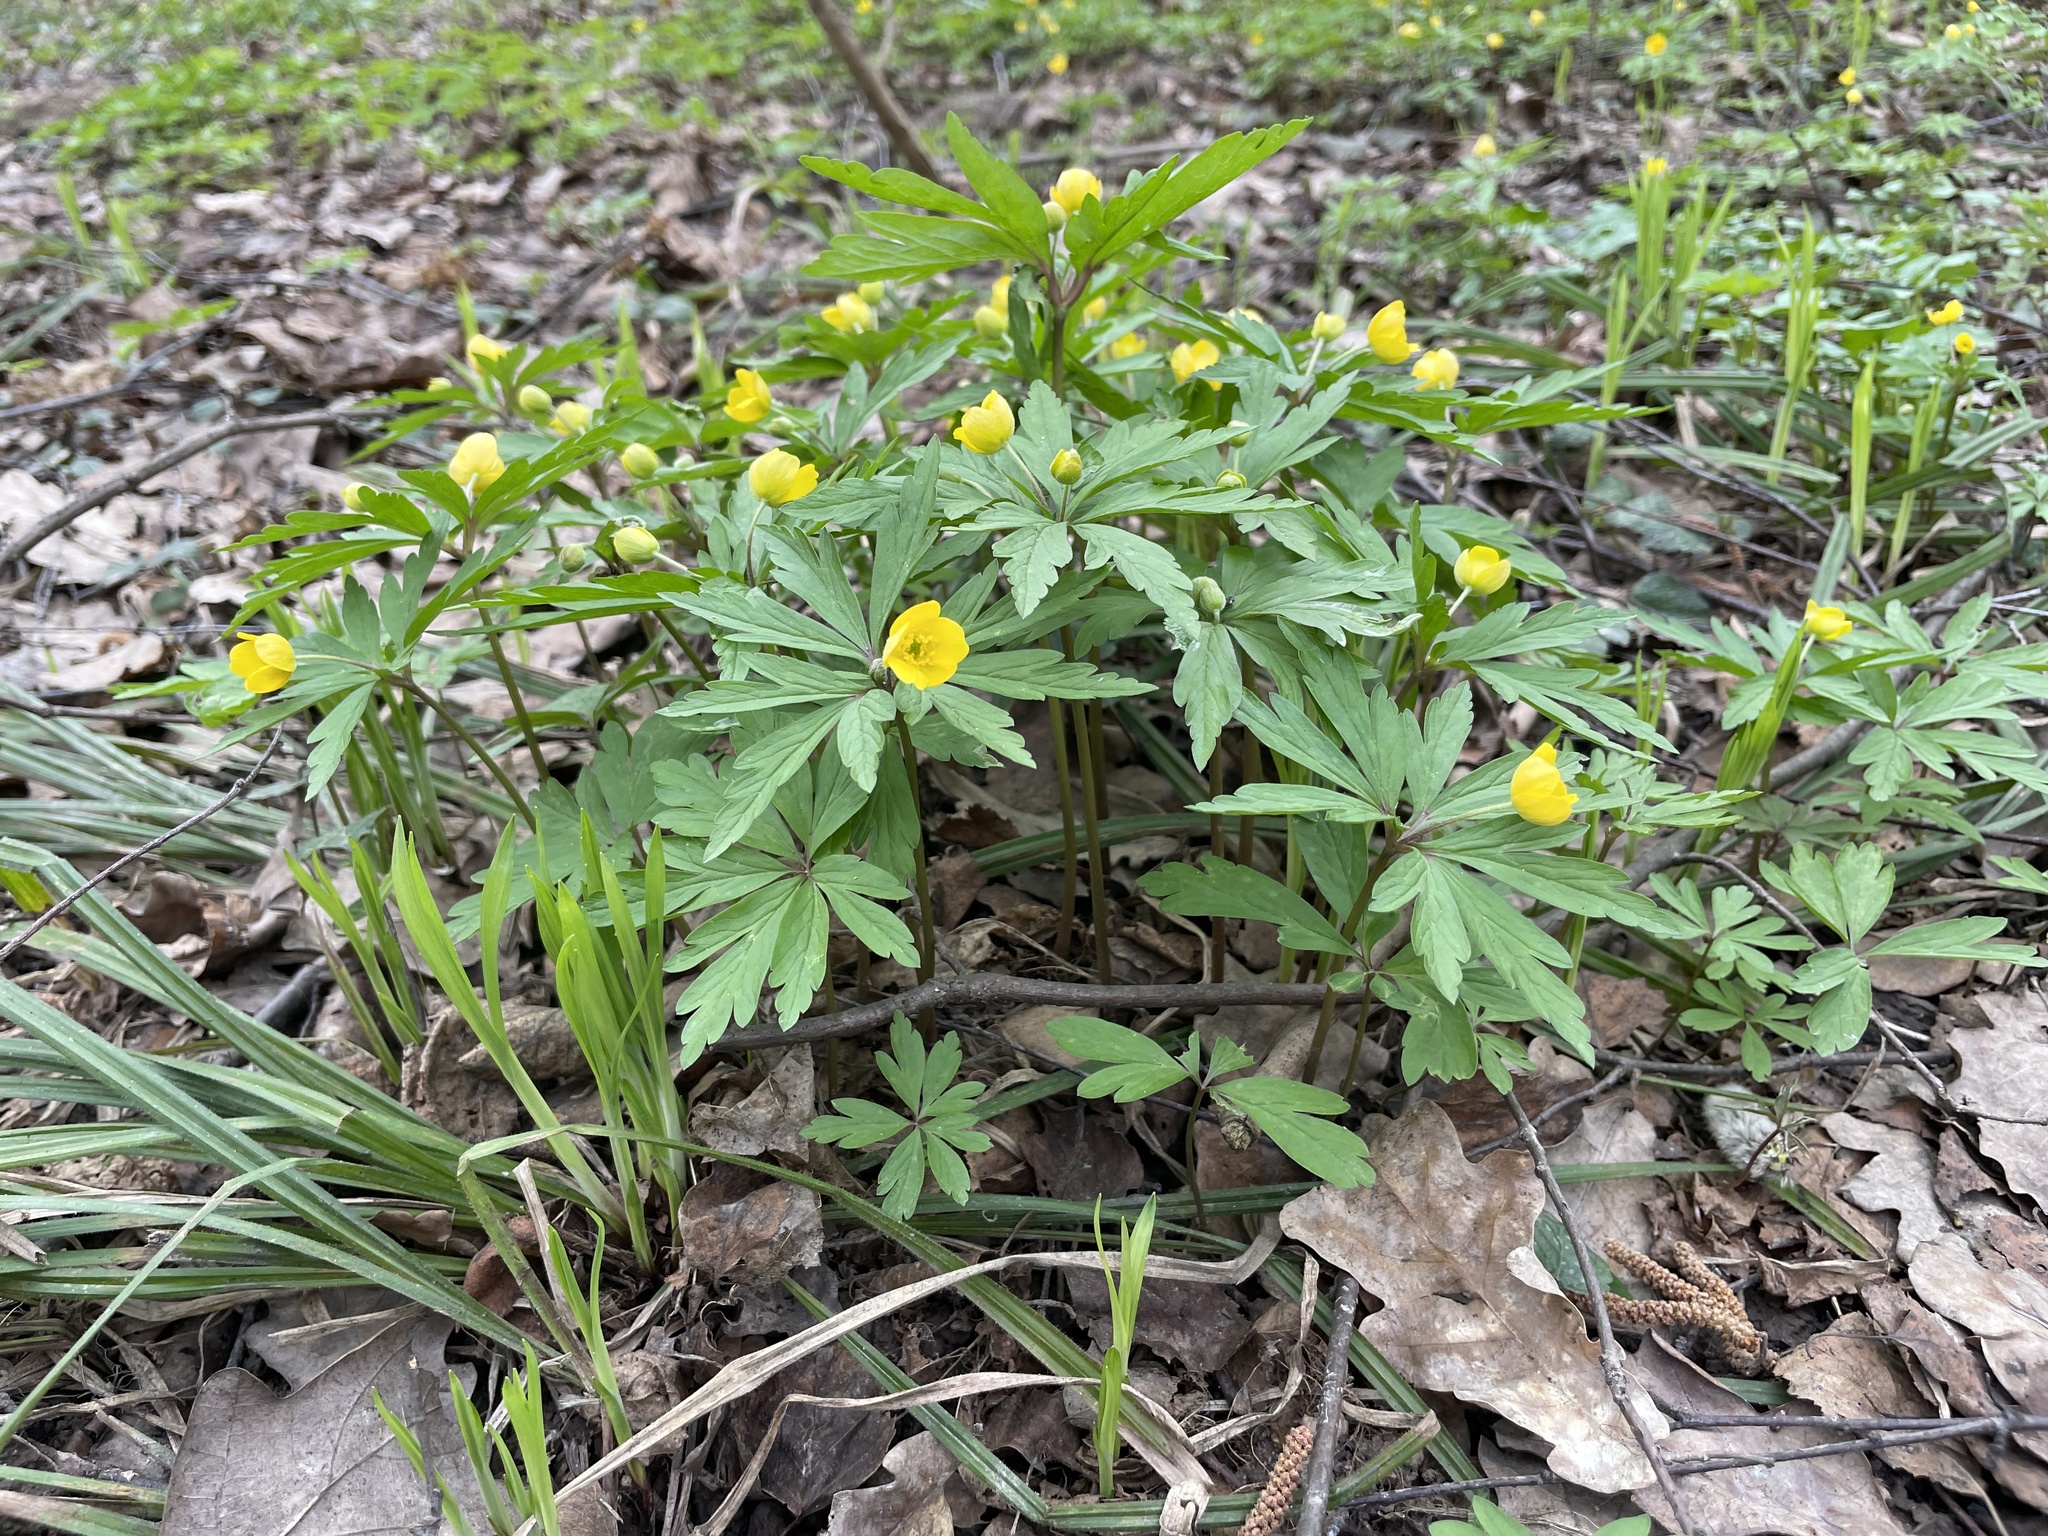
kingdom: Plantae
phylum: Tracheophyta
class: Magnoliopsida
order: Ranunculales
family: Ranunculaceae
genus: Anemone
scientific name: Anemone ranunculoides
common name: Yellow anemone
